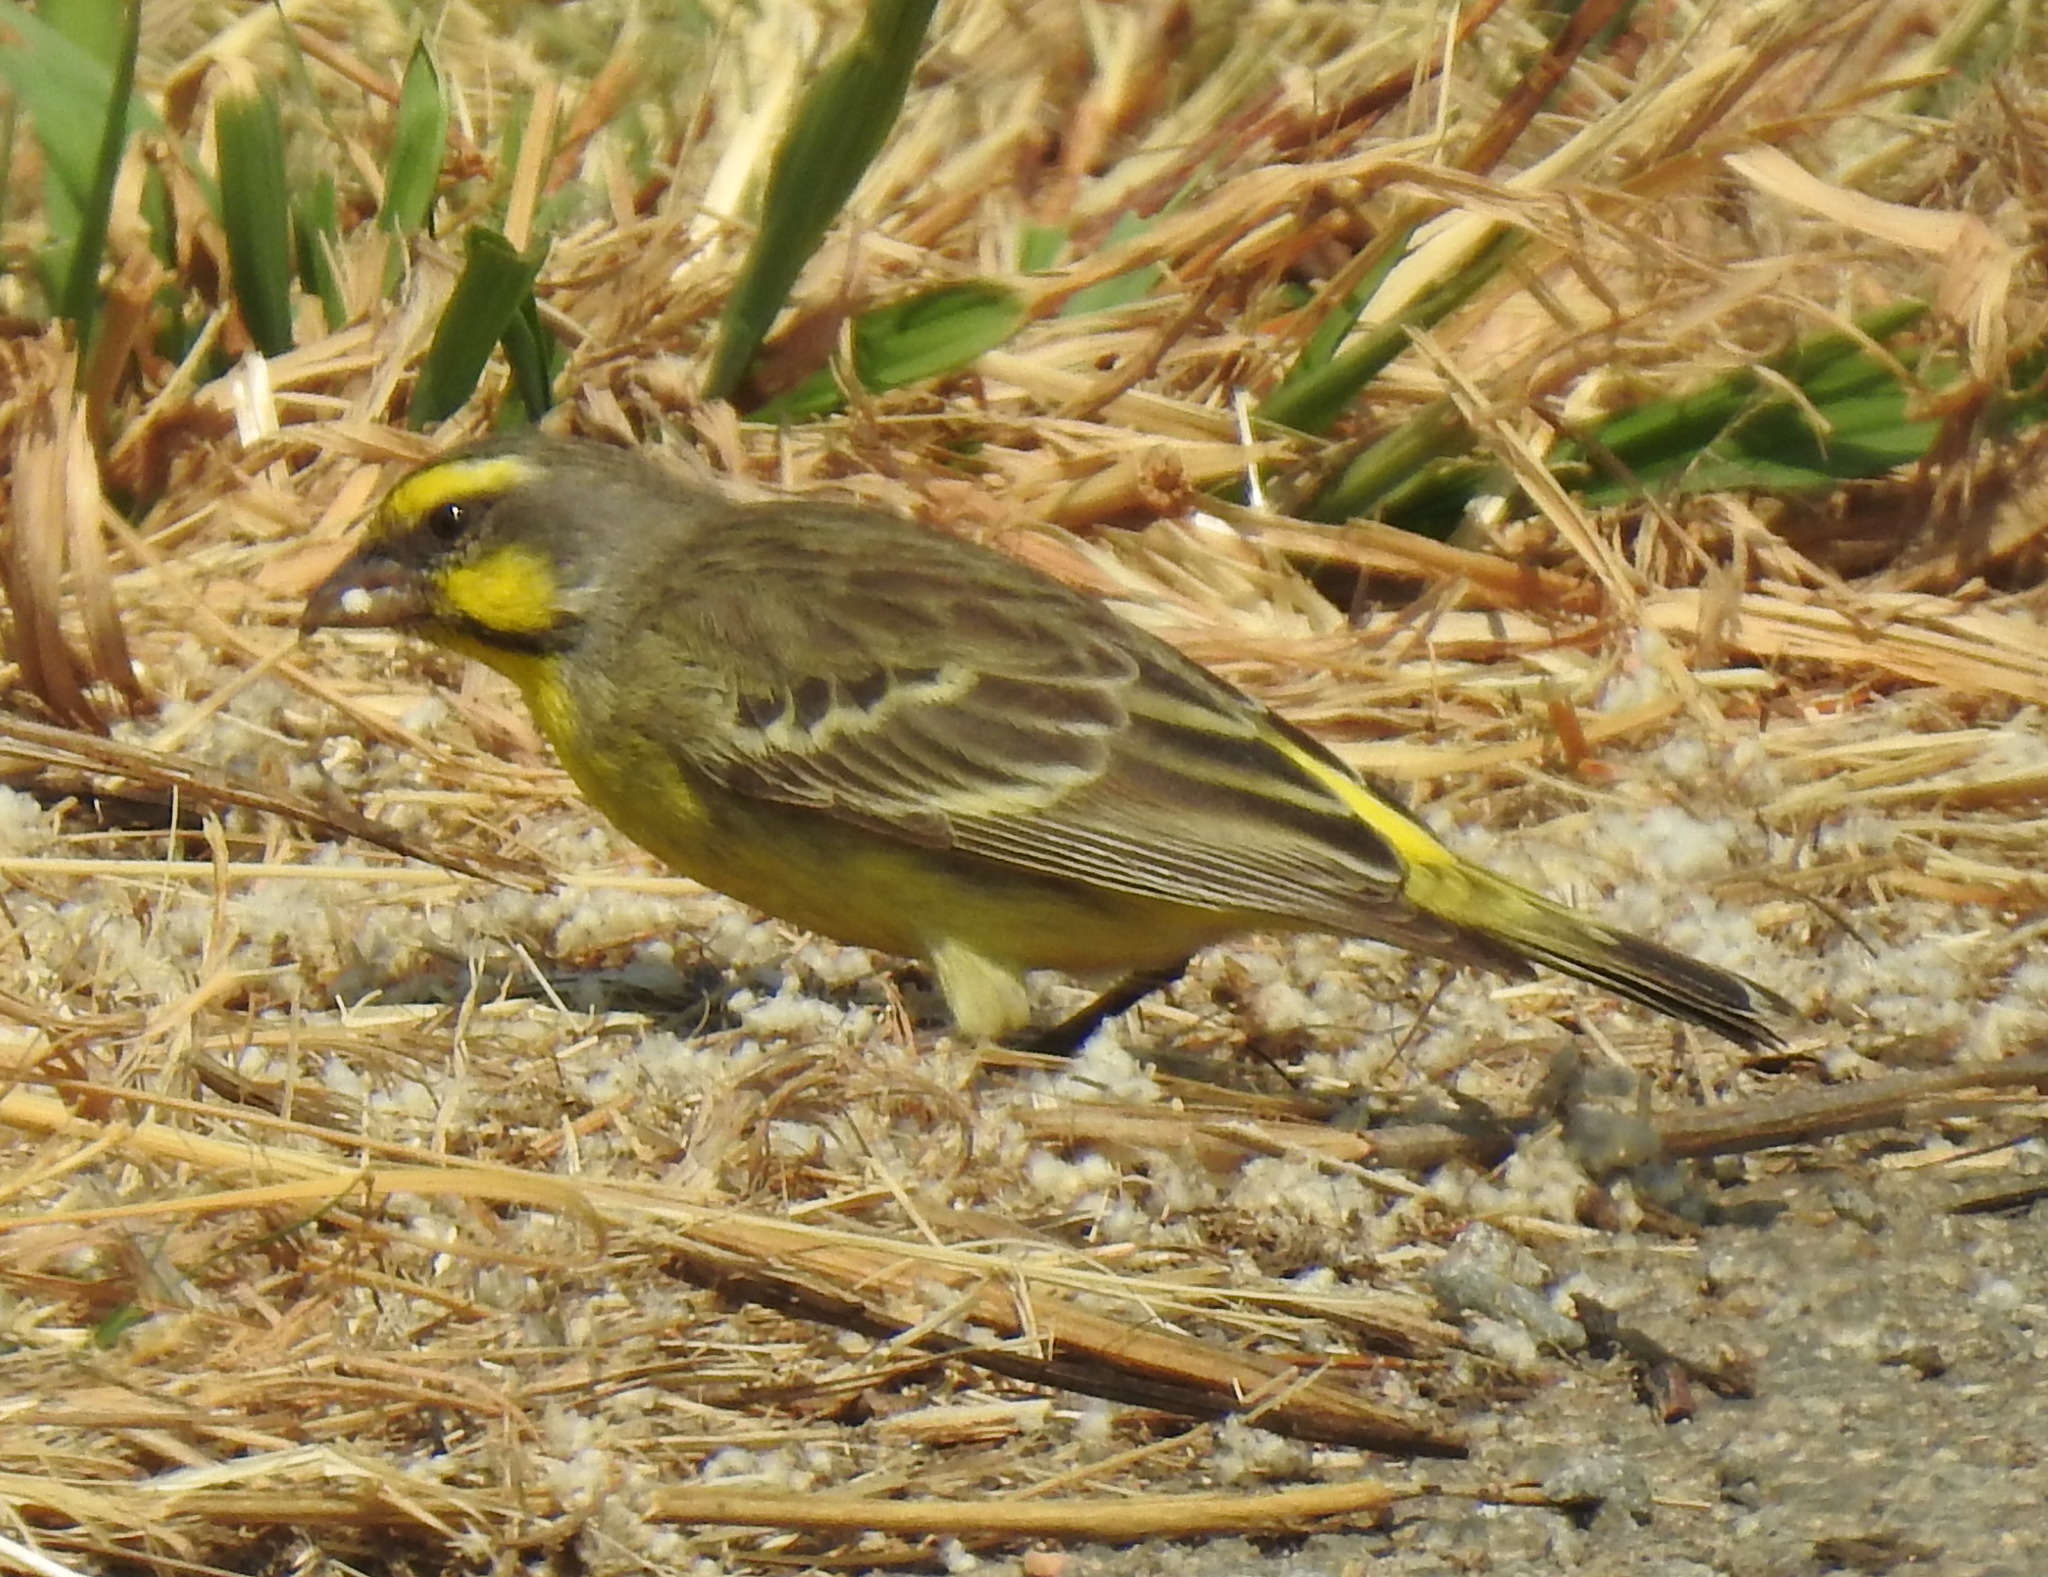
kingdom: Animalia
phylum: Chordata
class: Aves
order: Passeriformes
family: Fringillidae
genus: Crithagra
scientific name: Crithagra mozambica
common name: Yellow-fronted canary
